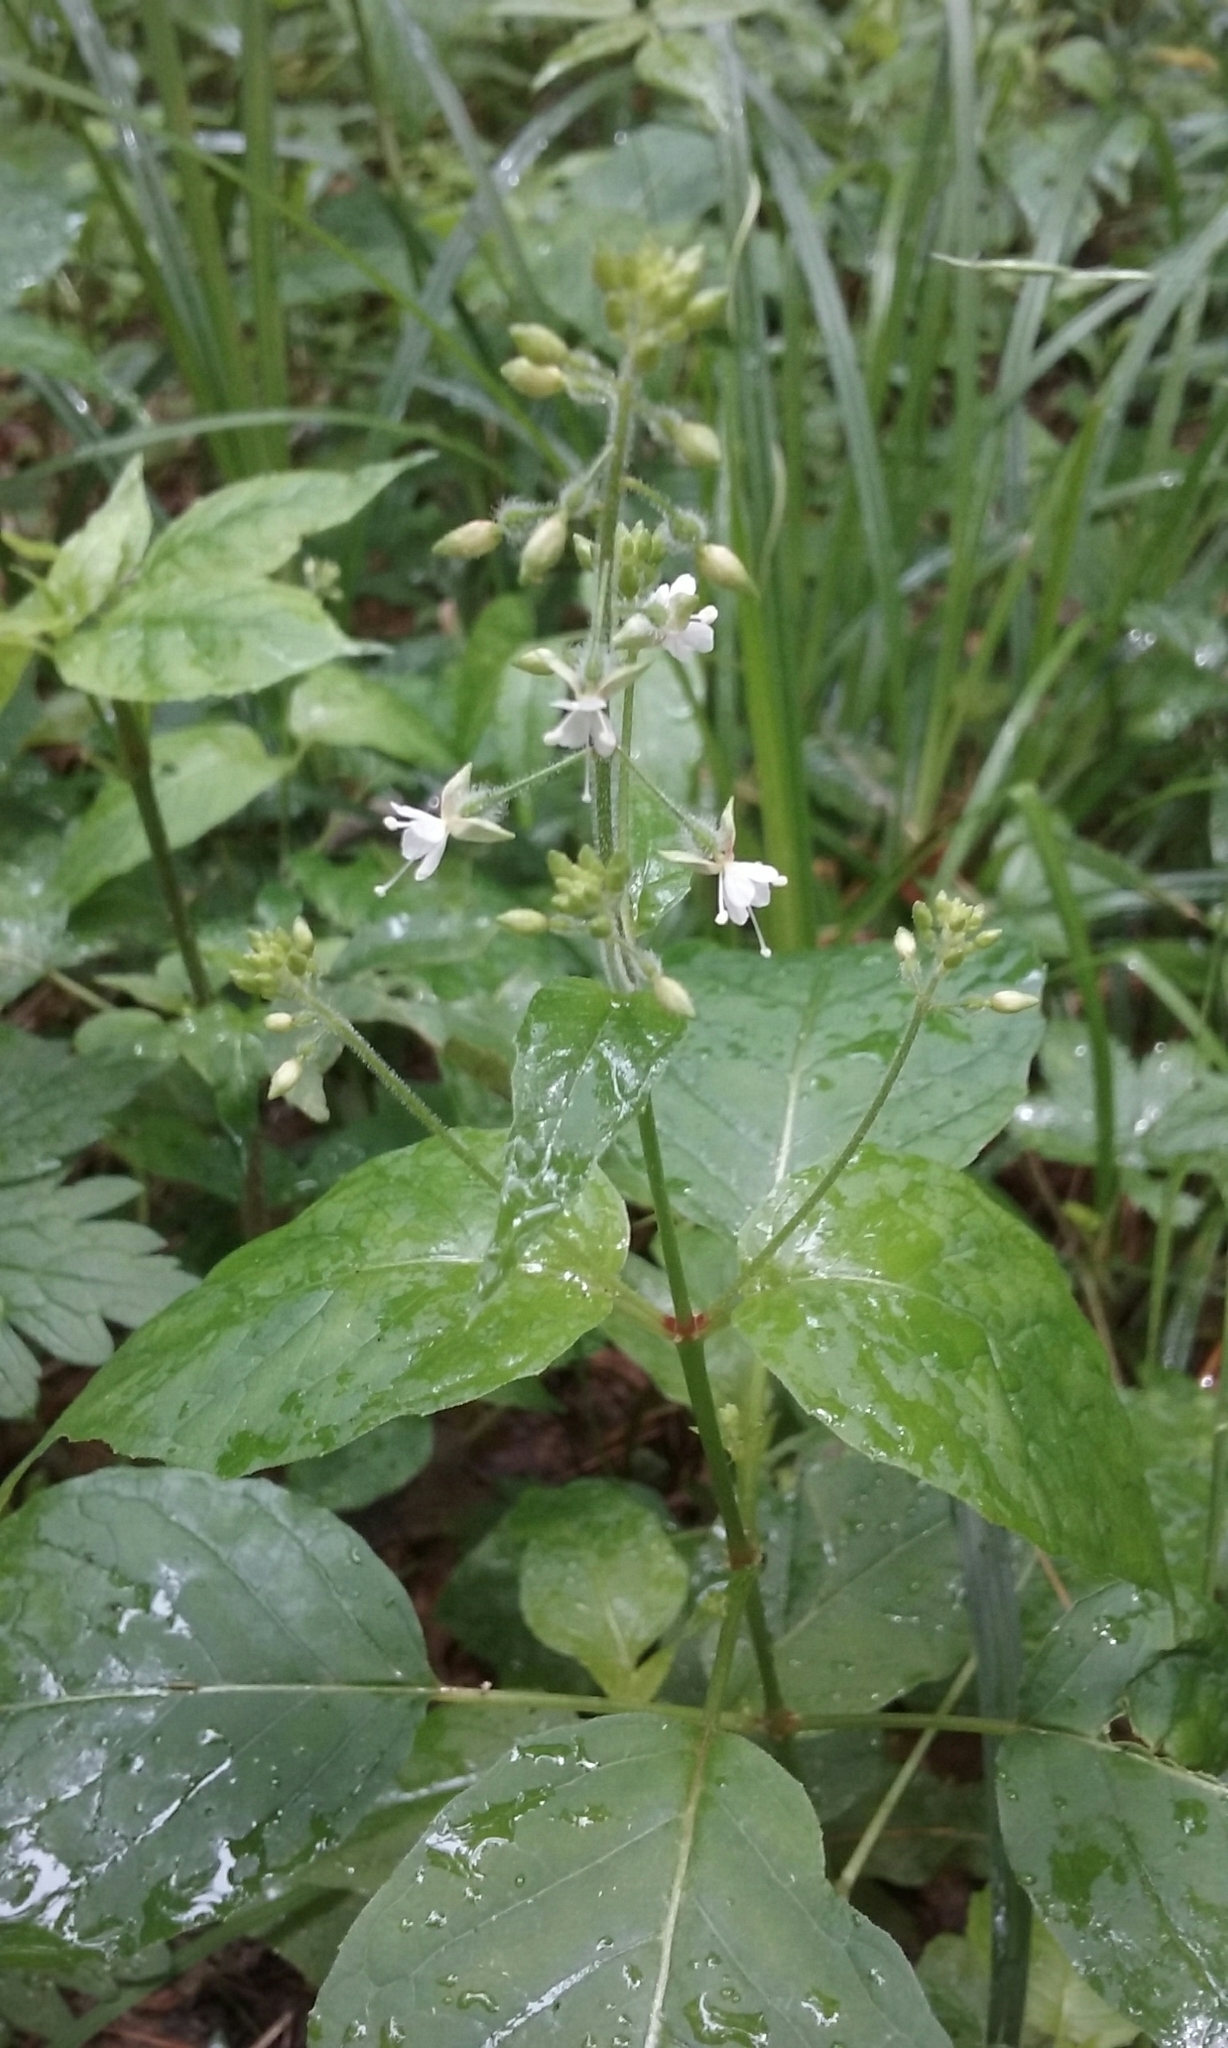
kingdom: Plantae
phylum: Tracheophyta
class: Magnoliopsida
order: Myrtales
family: Onagraceae
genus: Circaea
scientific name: Circaea canadensis
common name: Broad-leaved enchanter's nightshade
